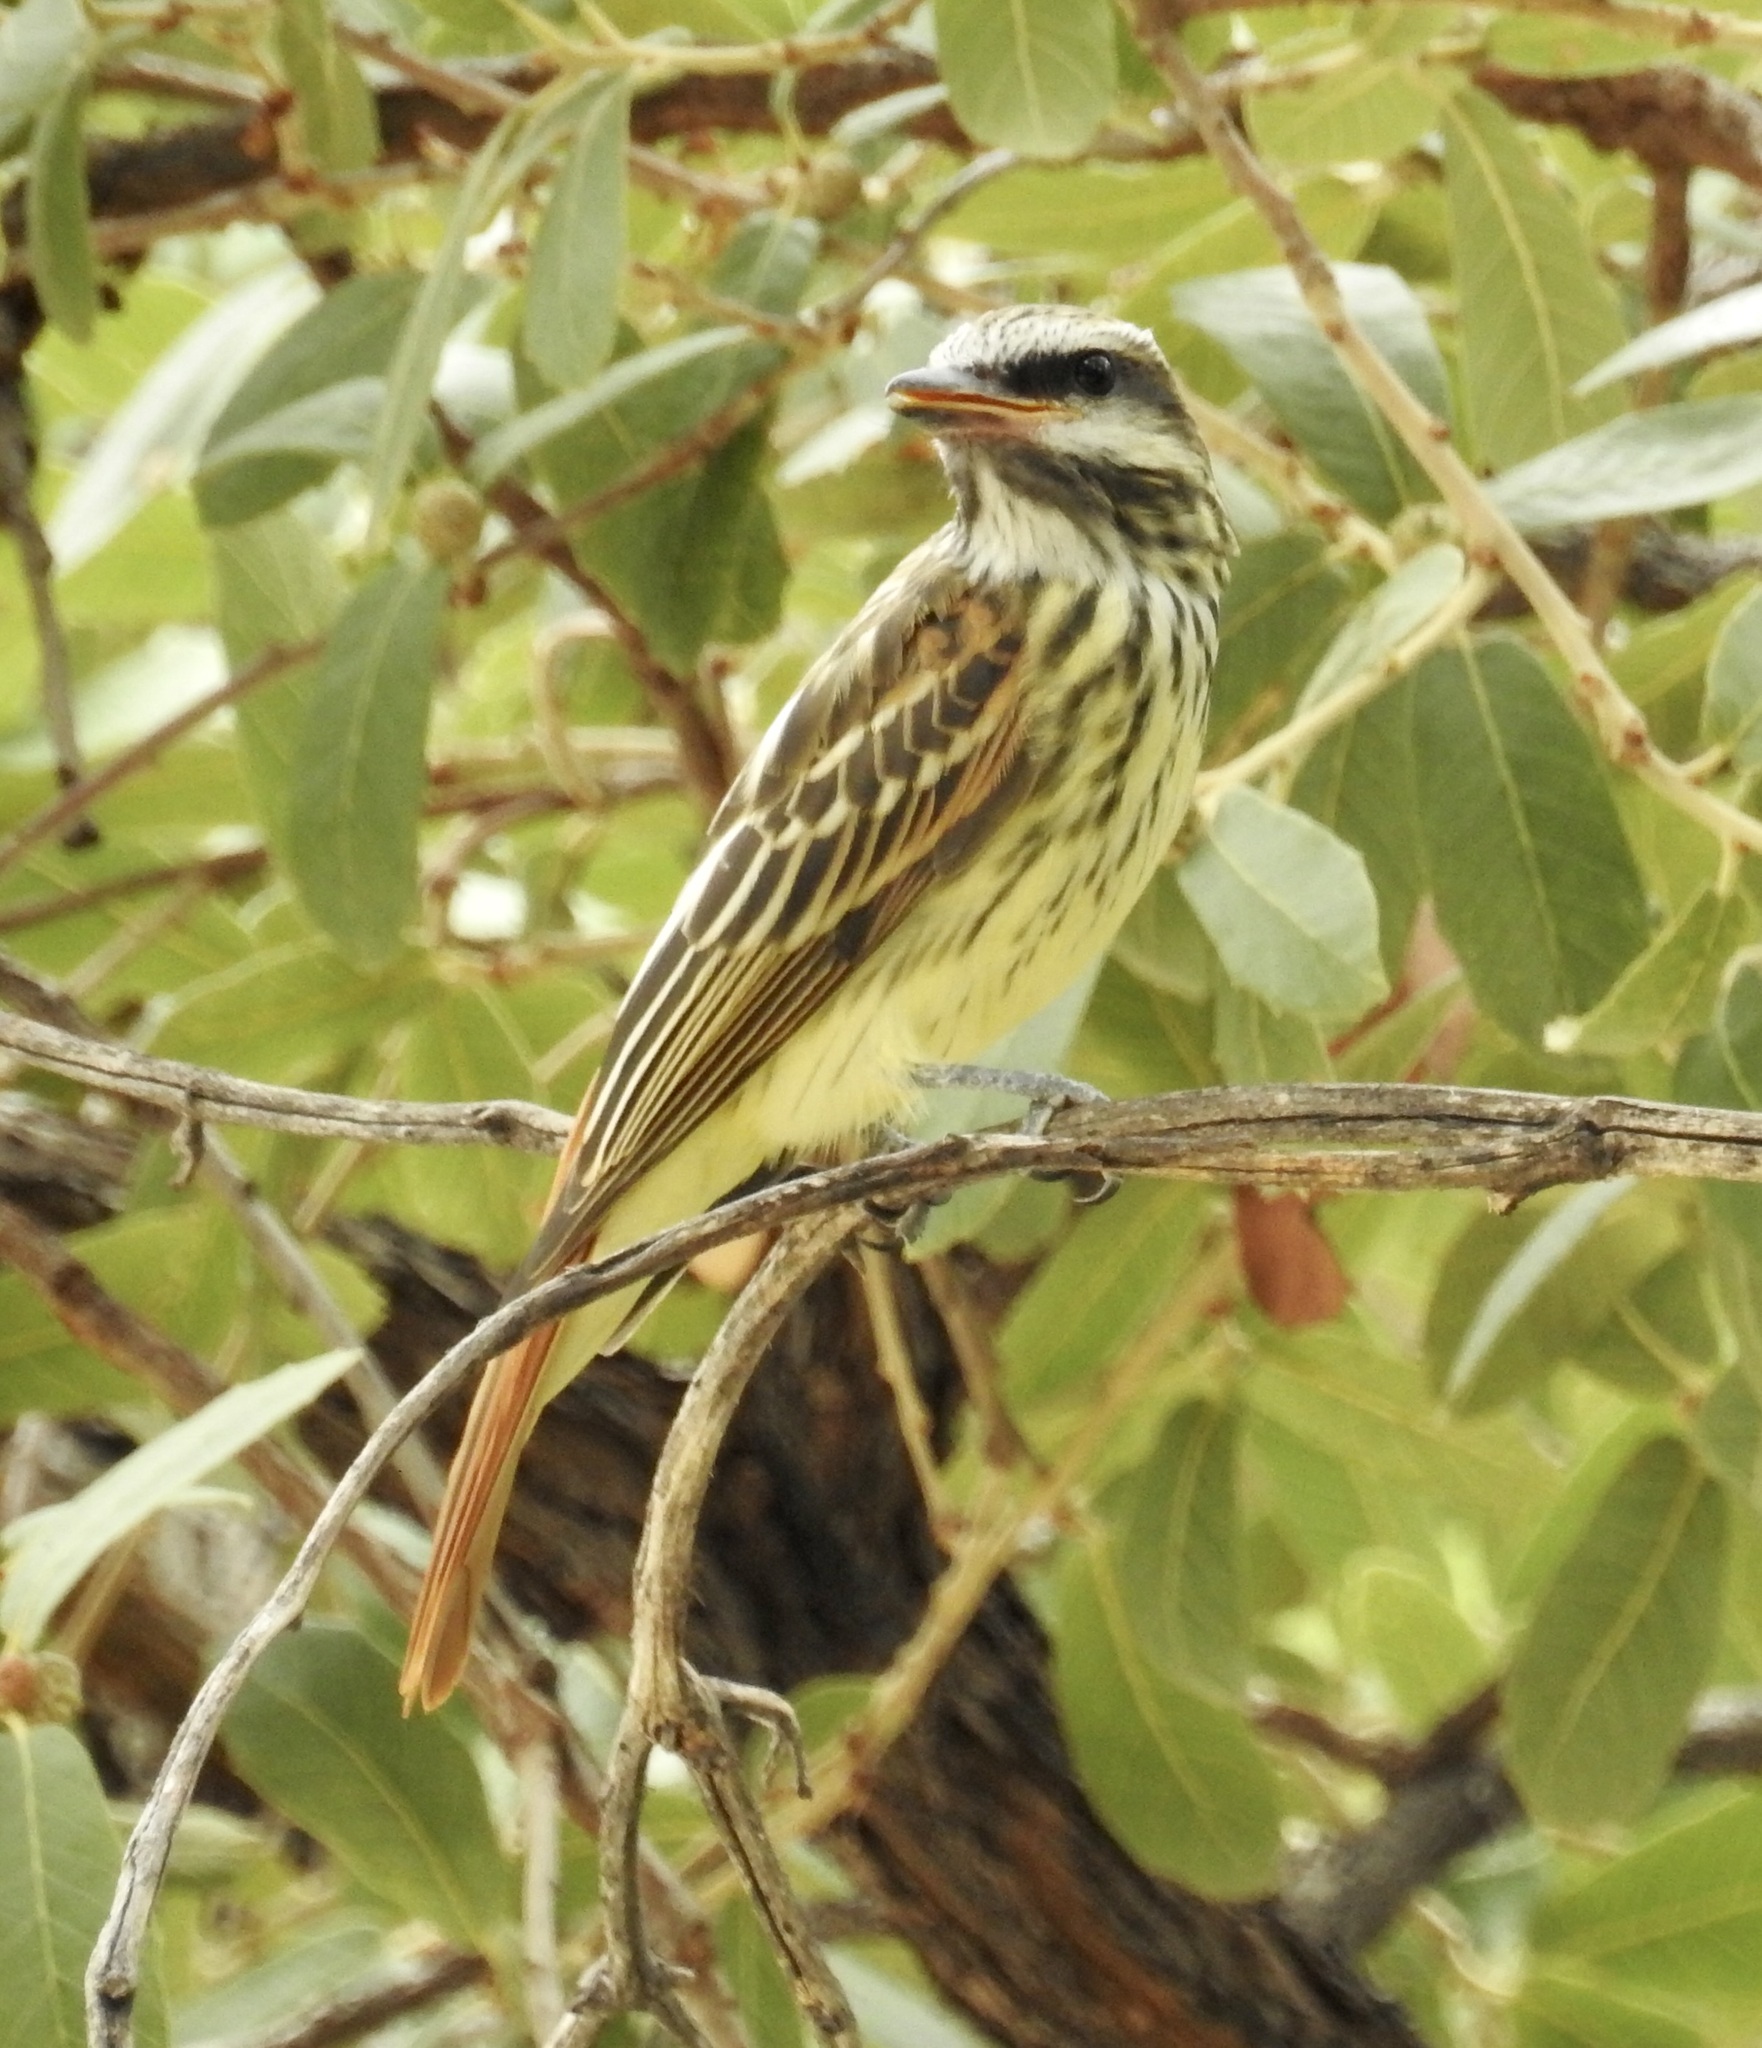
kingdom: Animalia
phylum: Chordata
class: Aves
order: Passeriformes
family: Tyrannidae
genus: Myiodynastes
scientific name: Myiodynastes luteiventris
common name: Sulphur-bellied flycatcher
